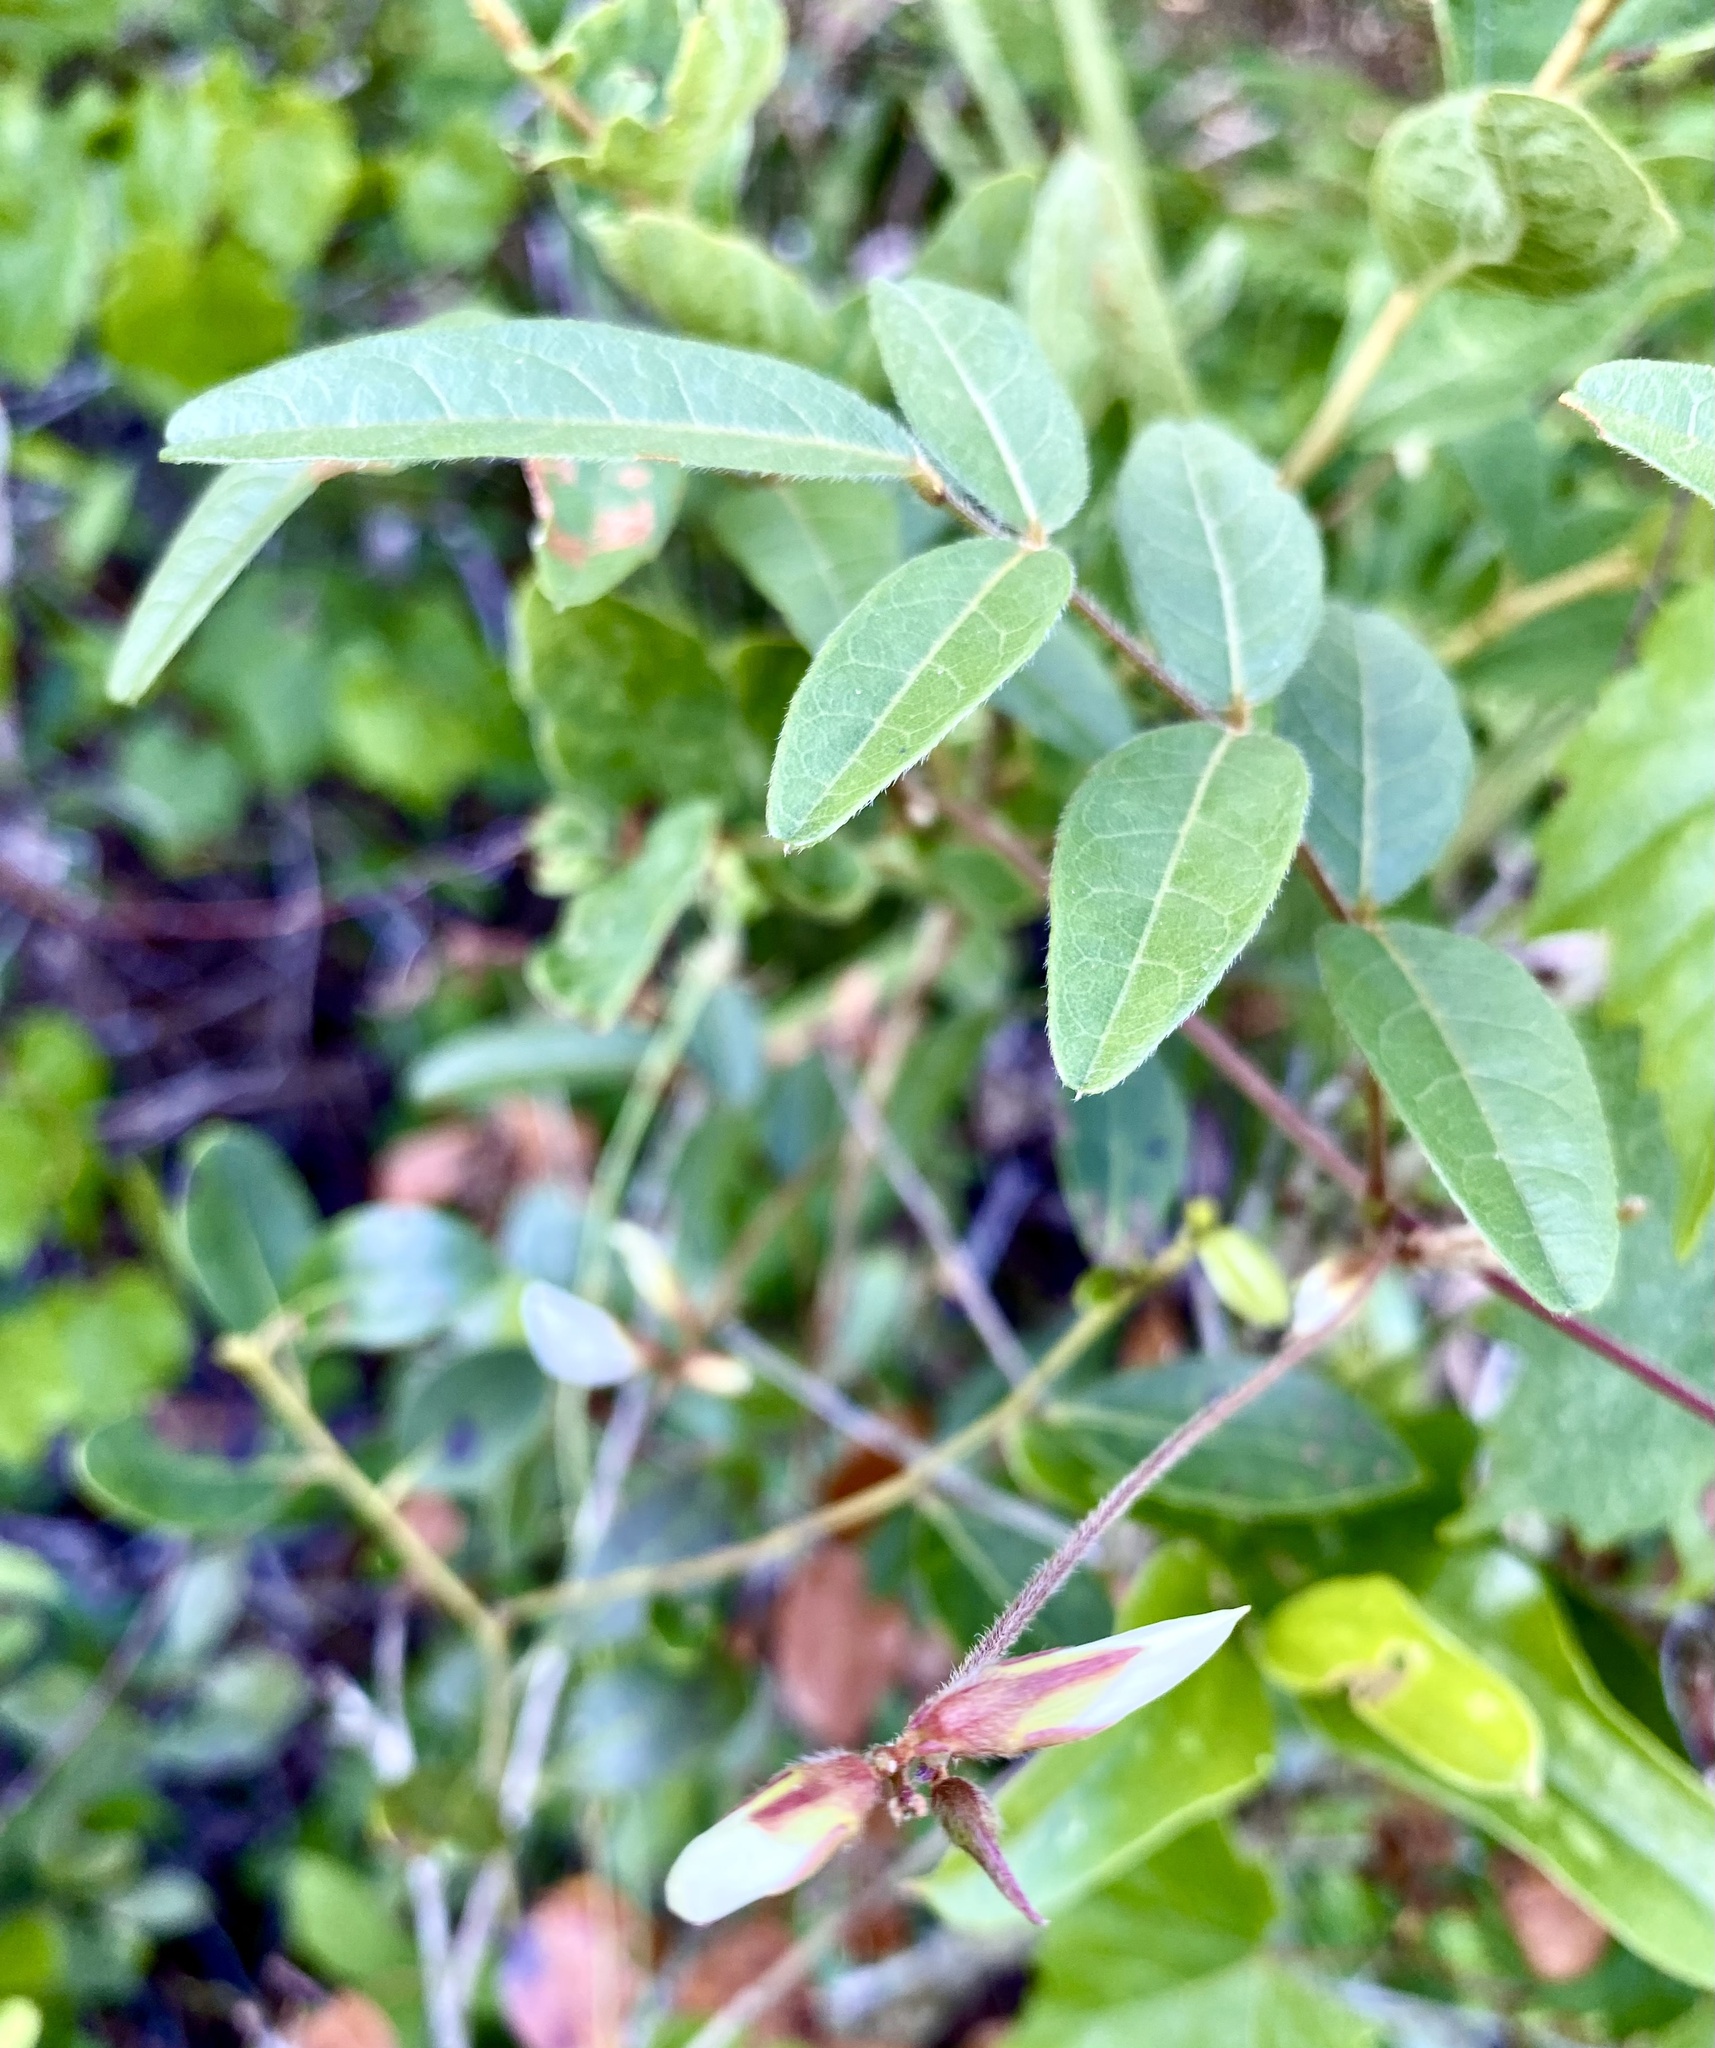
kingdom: Plantae
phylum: Tracheophyta
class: Magnoliopsida
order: Fabales
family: Fabaceae
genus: Galactia
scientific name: Galactia elliottii
